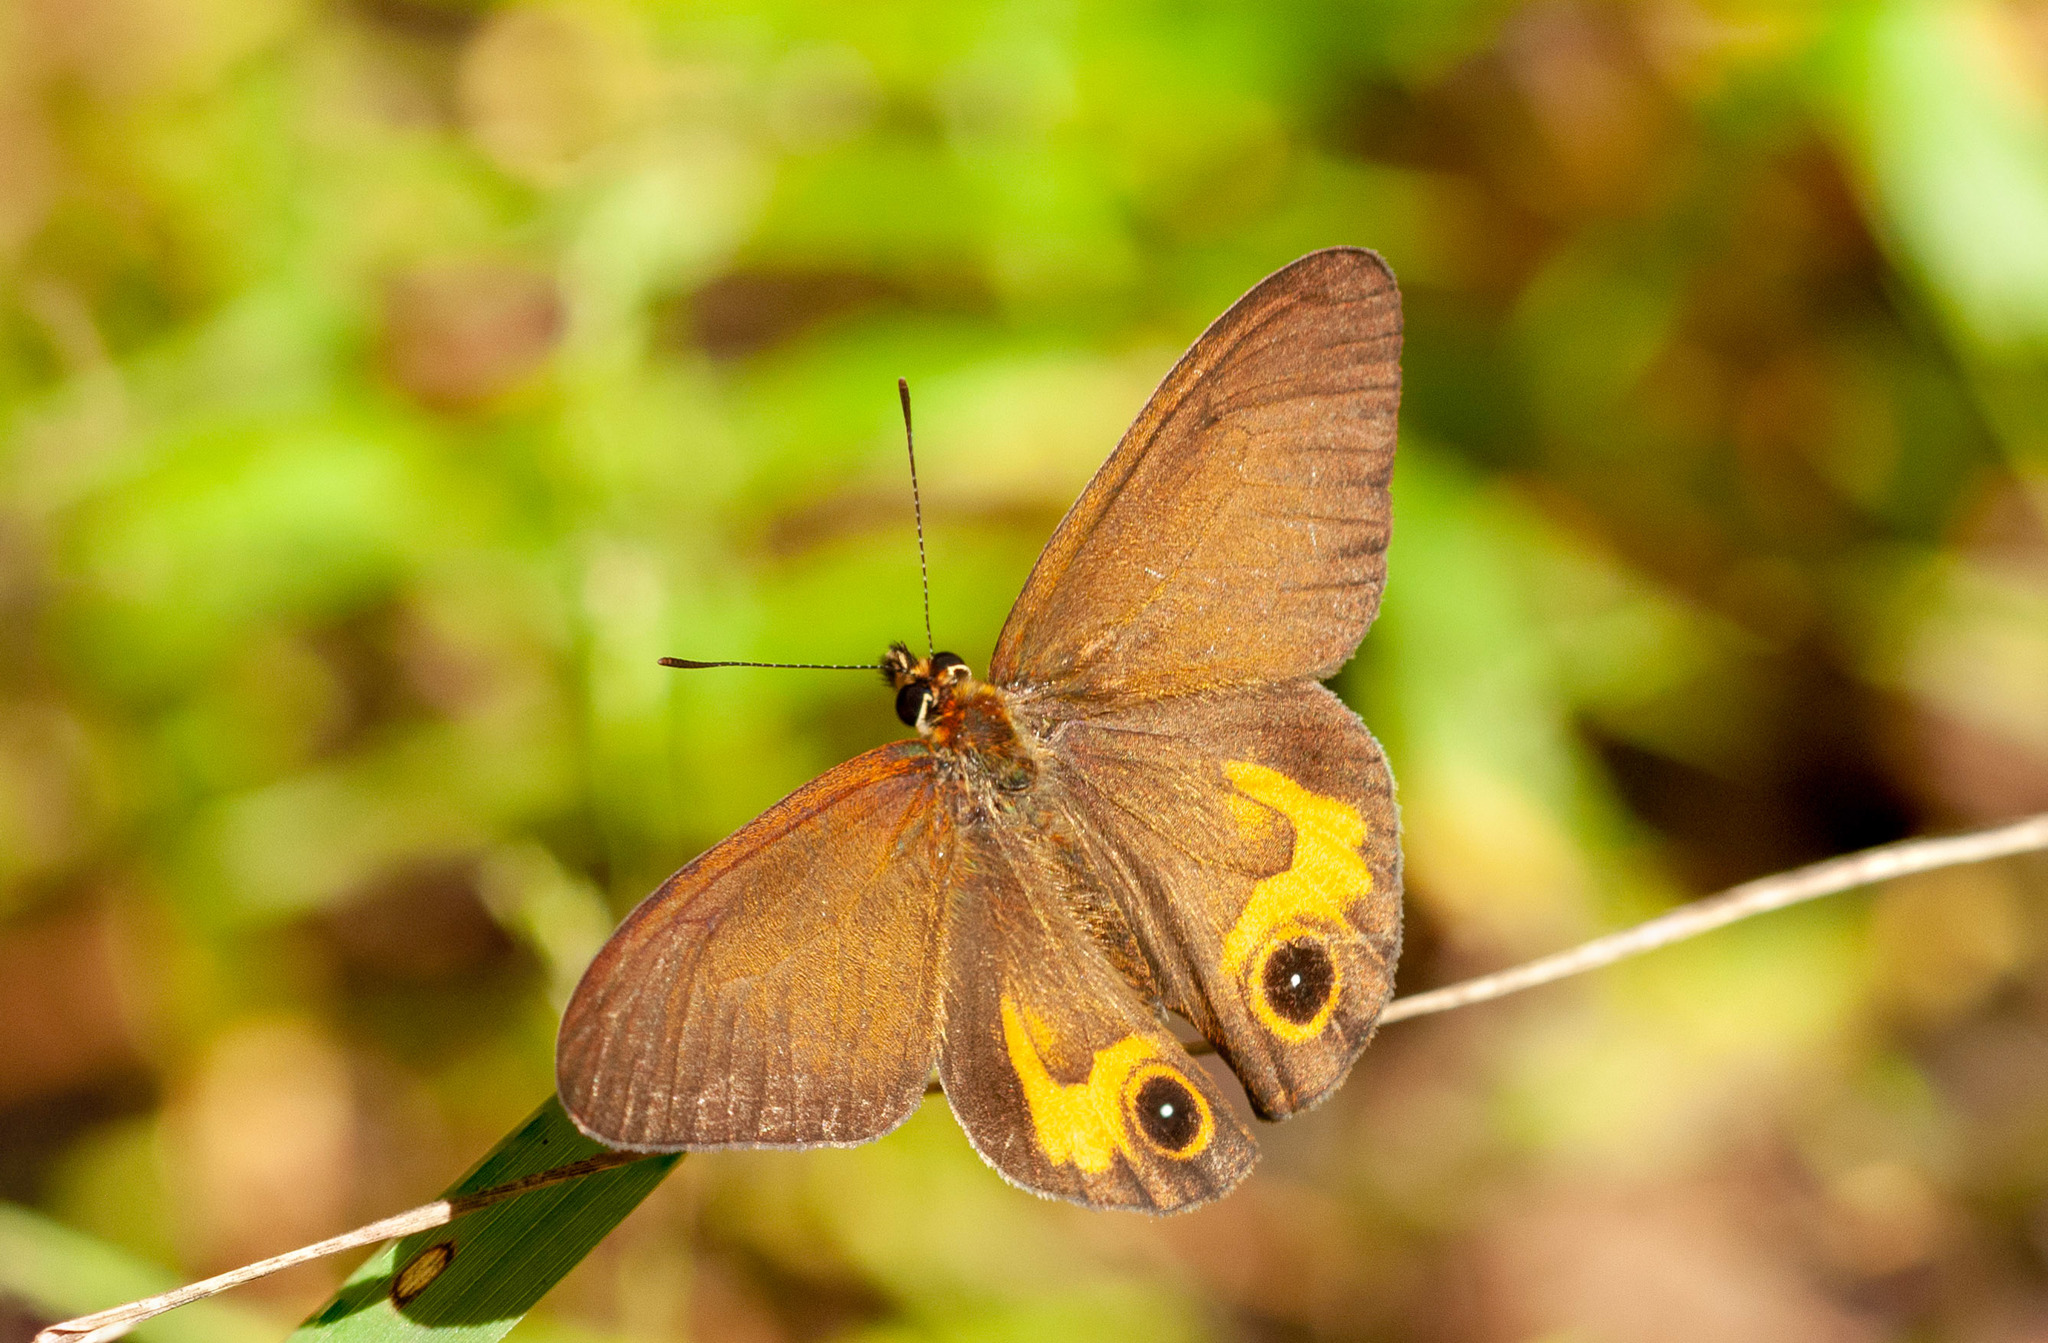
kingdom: Animalia
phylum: Arthropoda
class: Insecta
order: Lepidoptera
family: Nymphalidae
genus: Hypocysta
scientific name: Hypocysta metirius
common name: Brown ringlet
